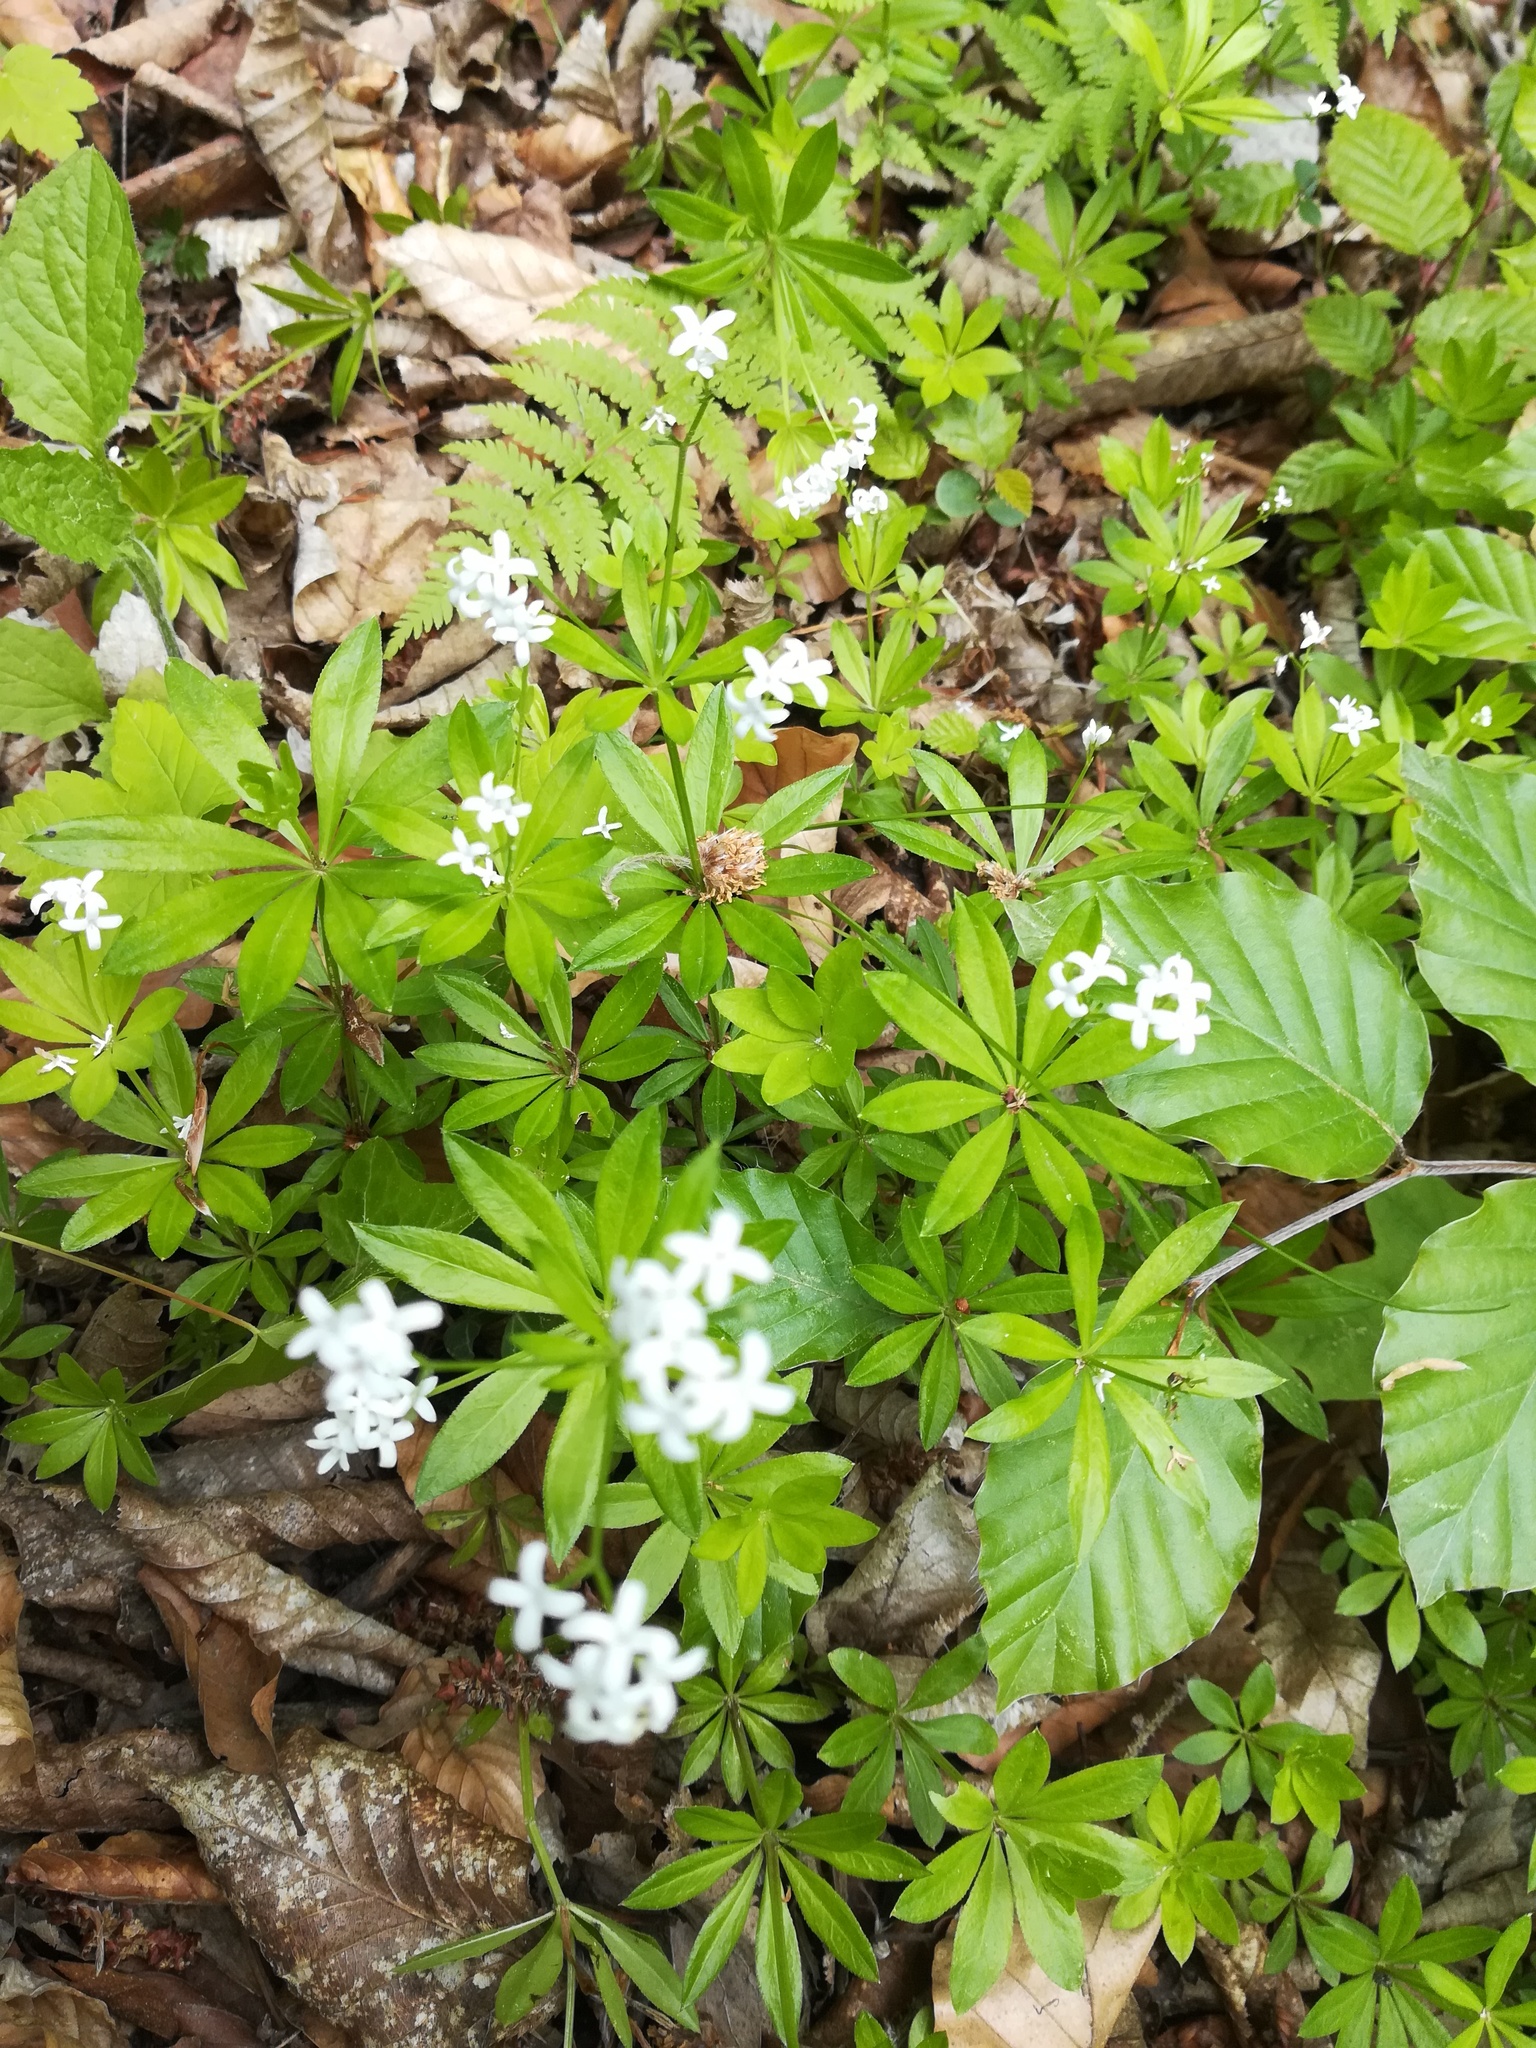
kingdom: Plantae
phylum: Tracheophyta
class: Magnoliopsida
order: Gentianales
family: Rubiaceae
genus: Galium
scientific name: Galium odoratum
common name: Sweet woodruff
